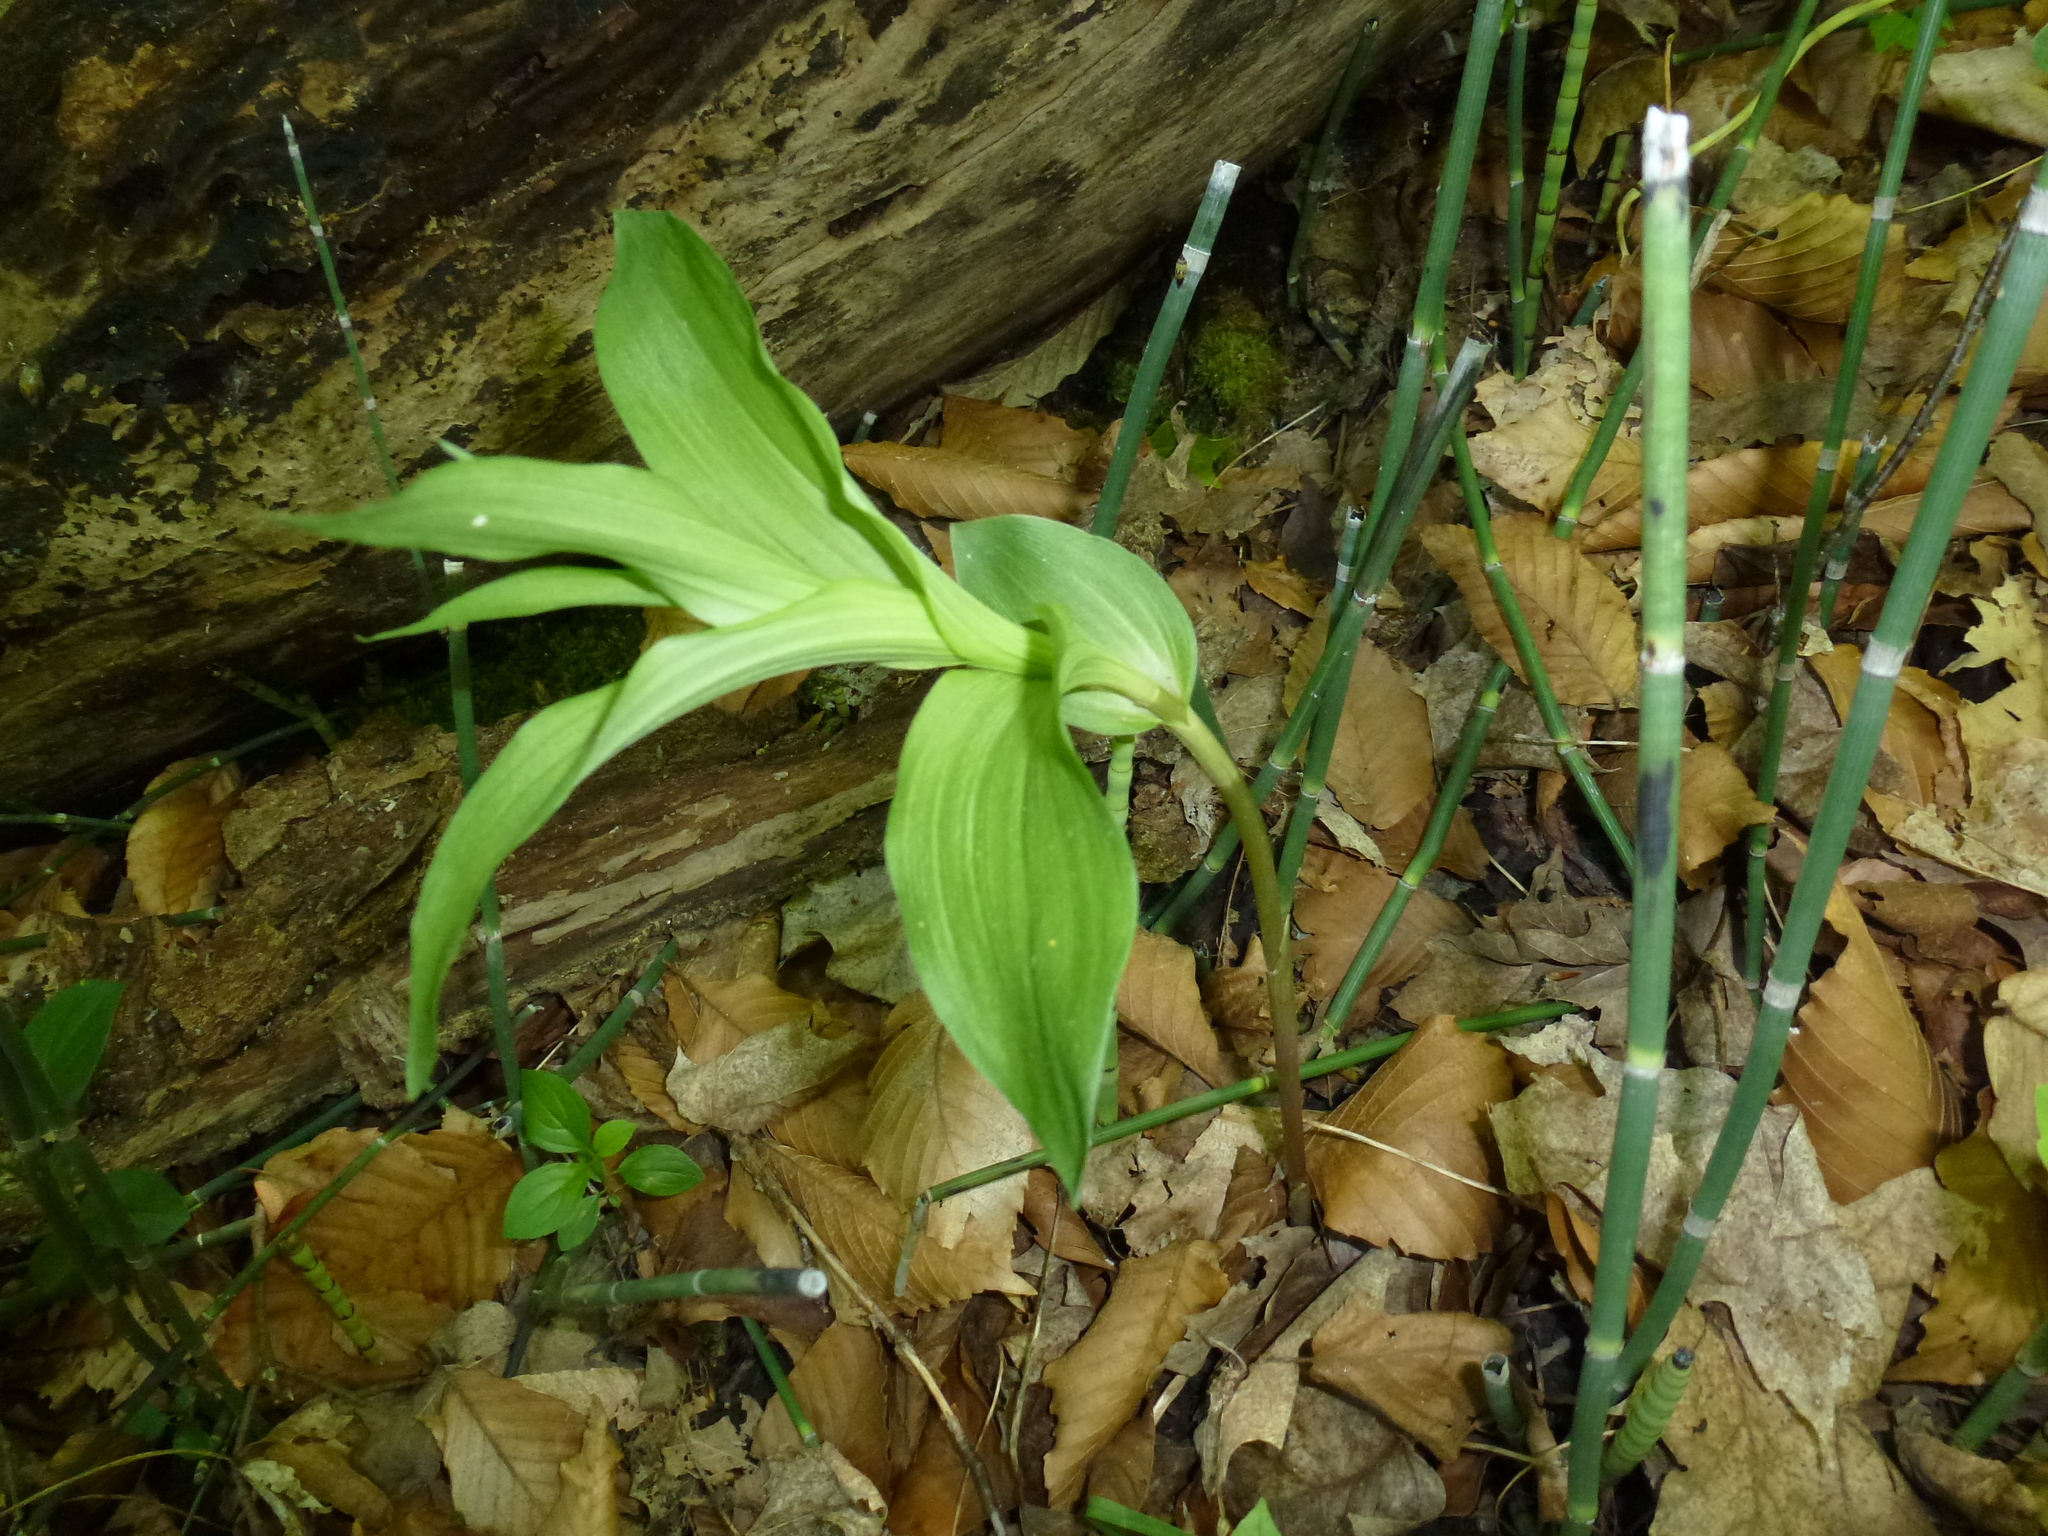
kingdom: Plantae
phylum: Tracheophyta
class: Liliopsida
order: Asparagales
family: Orchidaceae
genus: Epipactis
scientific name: Epipactis helleborine
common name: Broad-leaved helleborine
